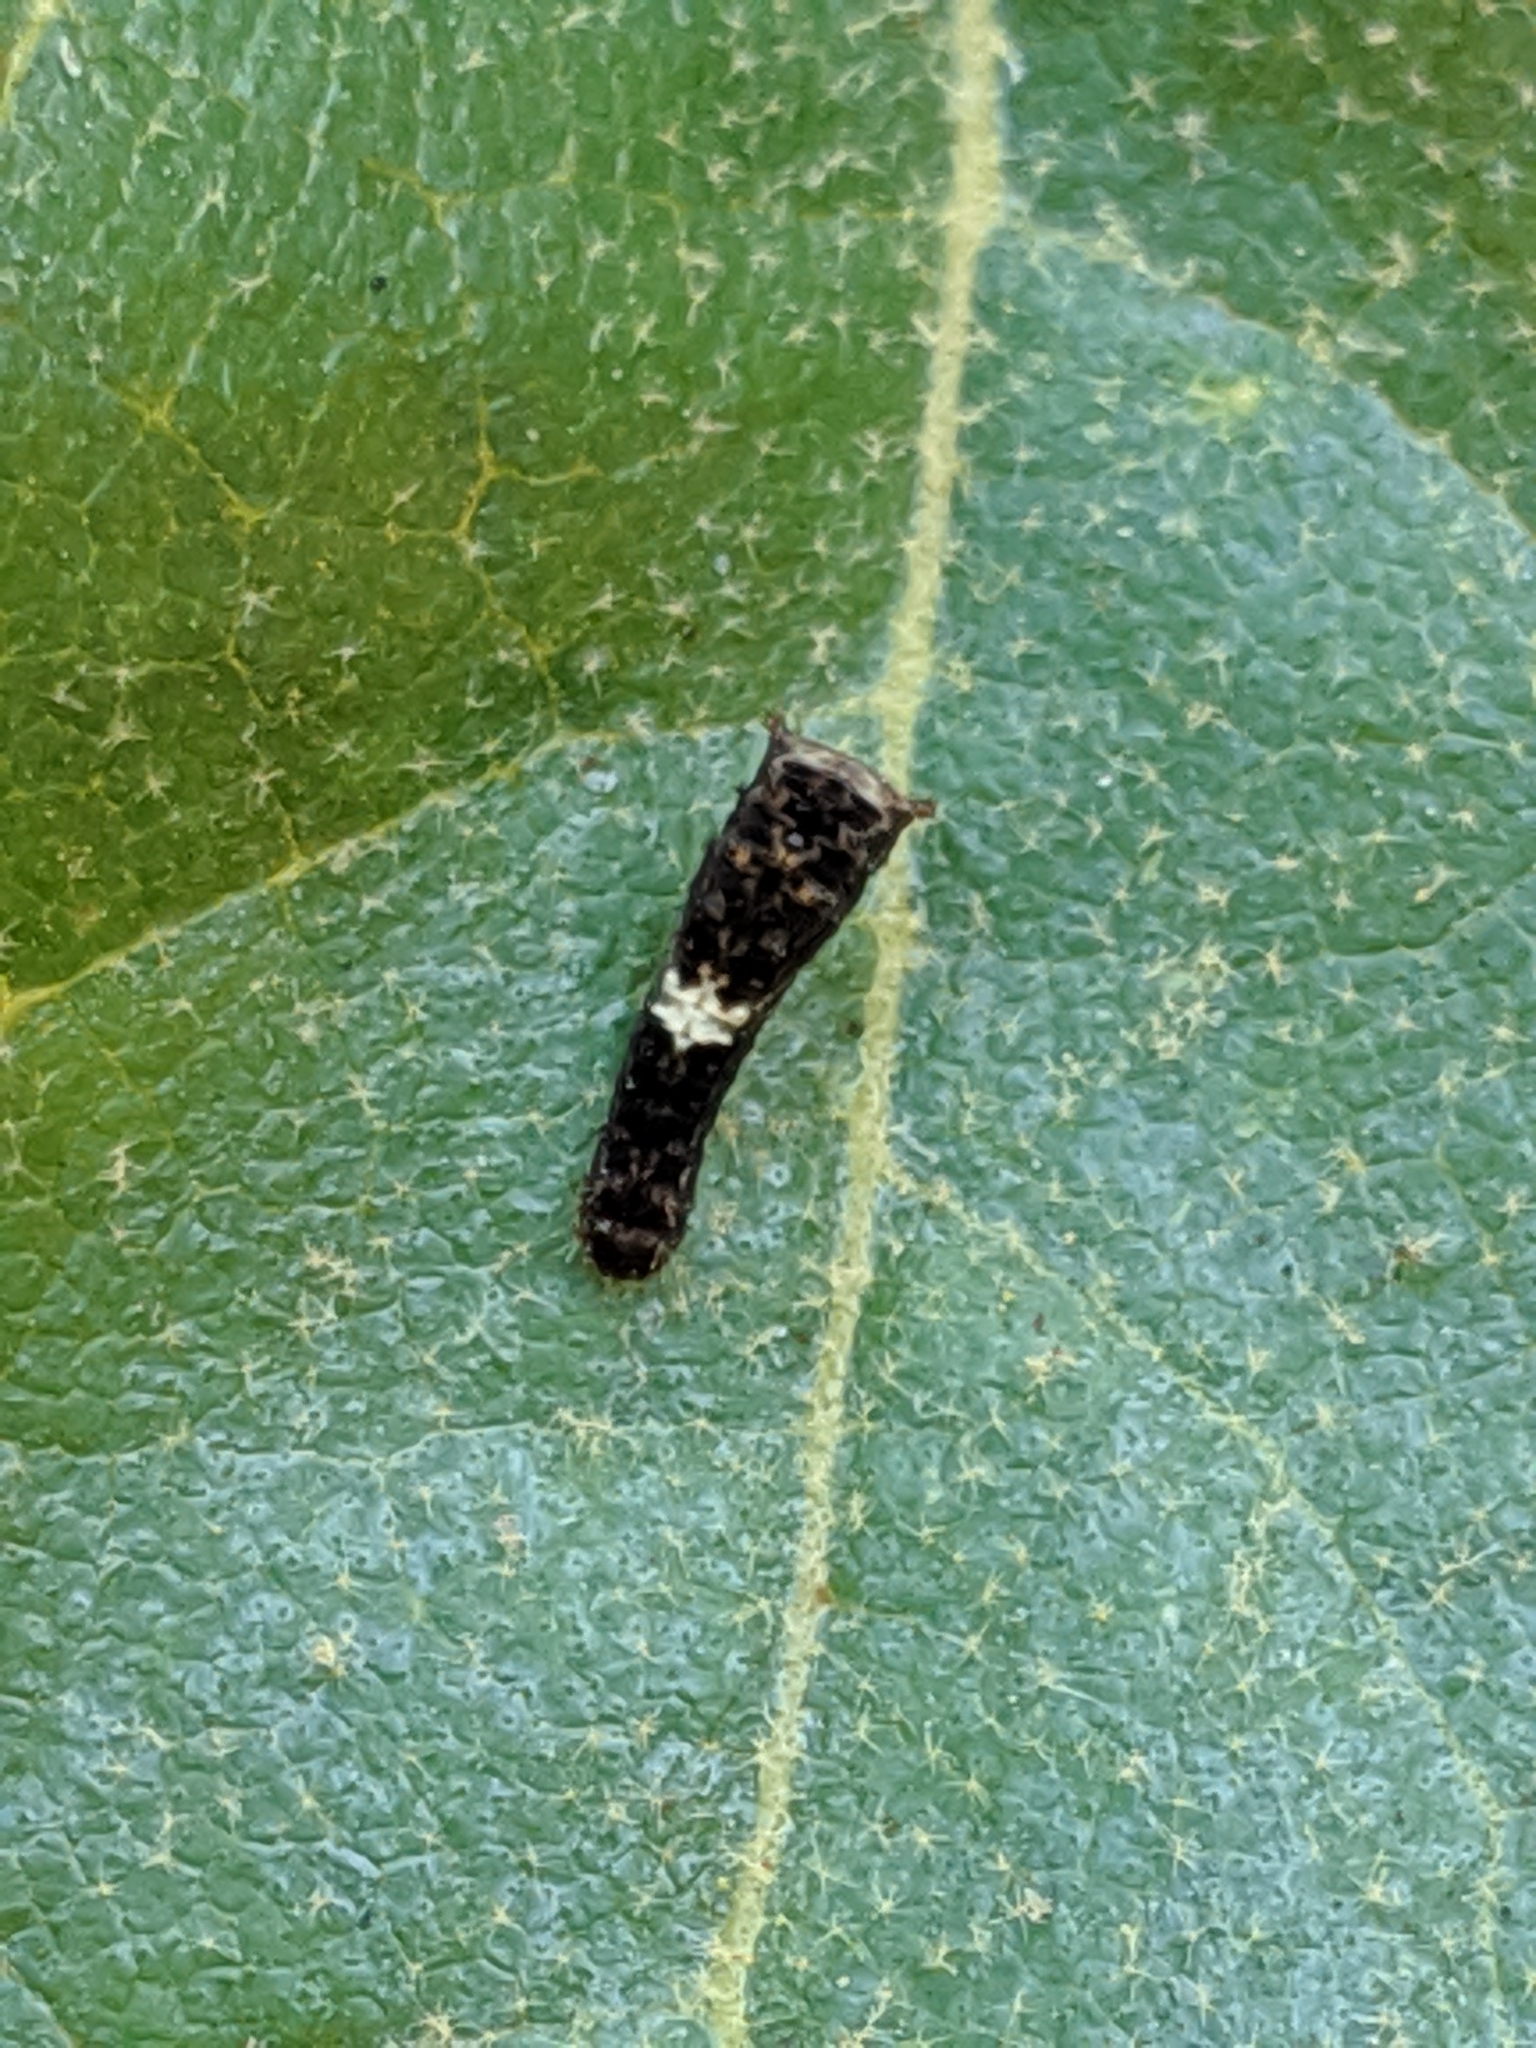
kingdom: Animalia
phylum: Arthropoda
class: Insecta
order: Lepidoptera
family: Papilionidae
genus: Papilio
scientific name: Papilio rutulus
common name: Western tiger swallowtail
